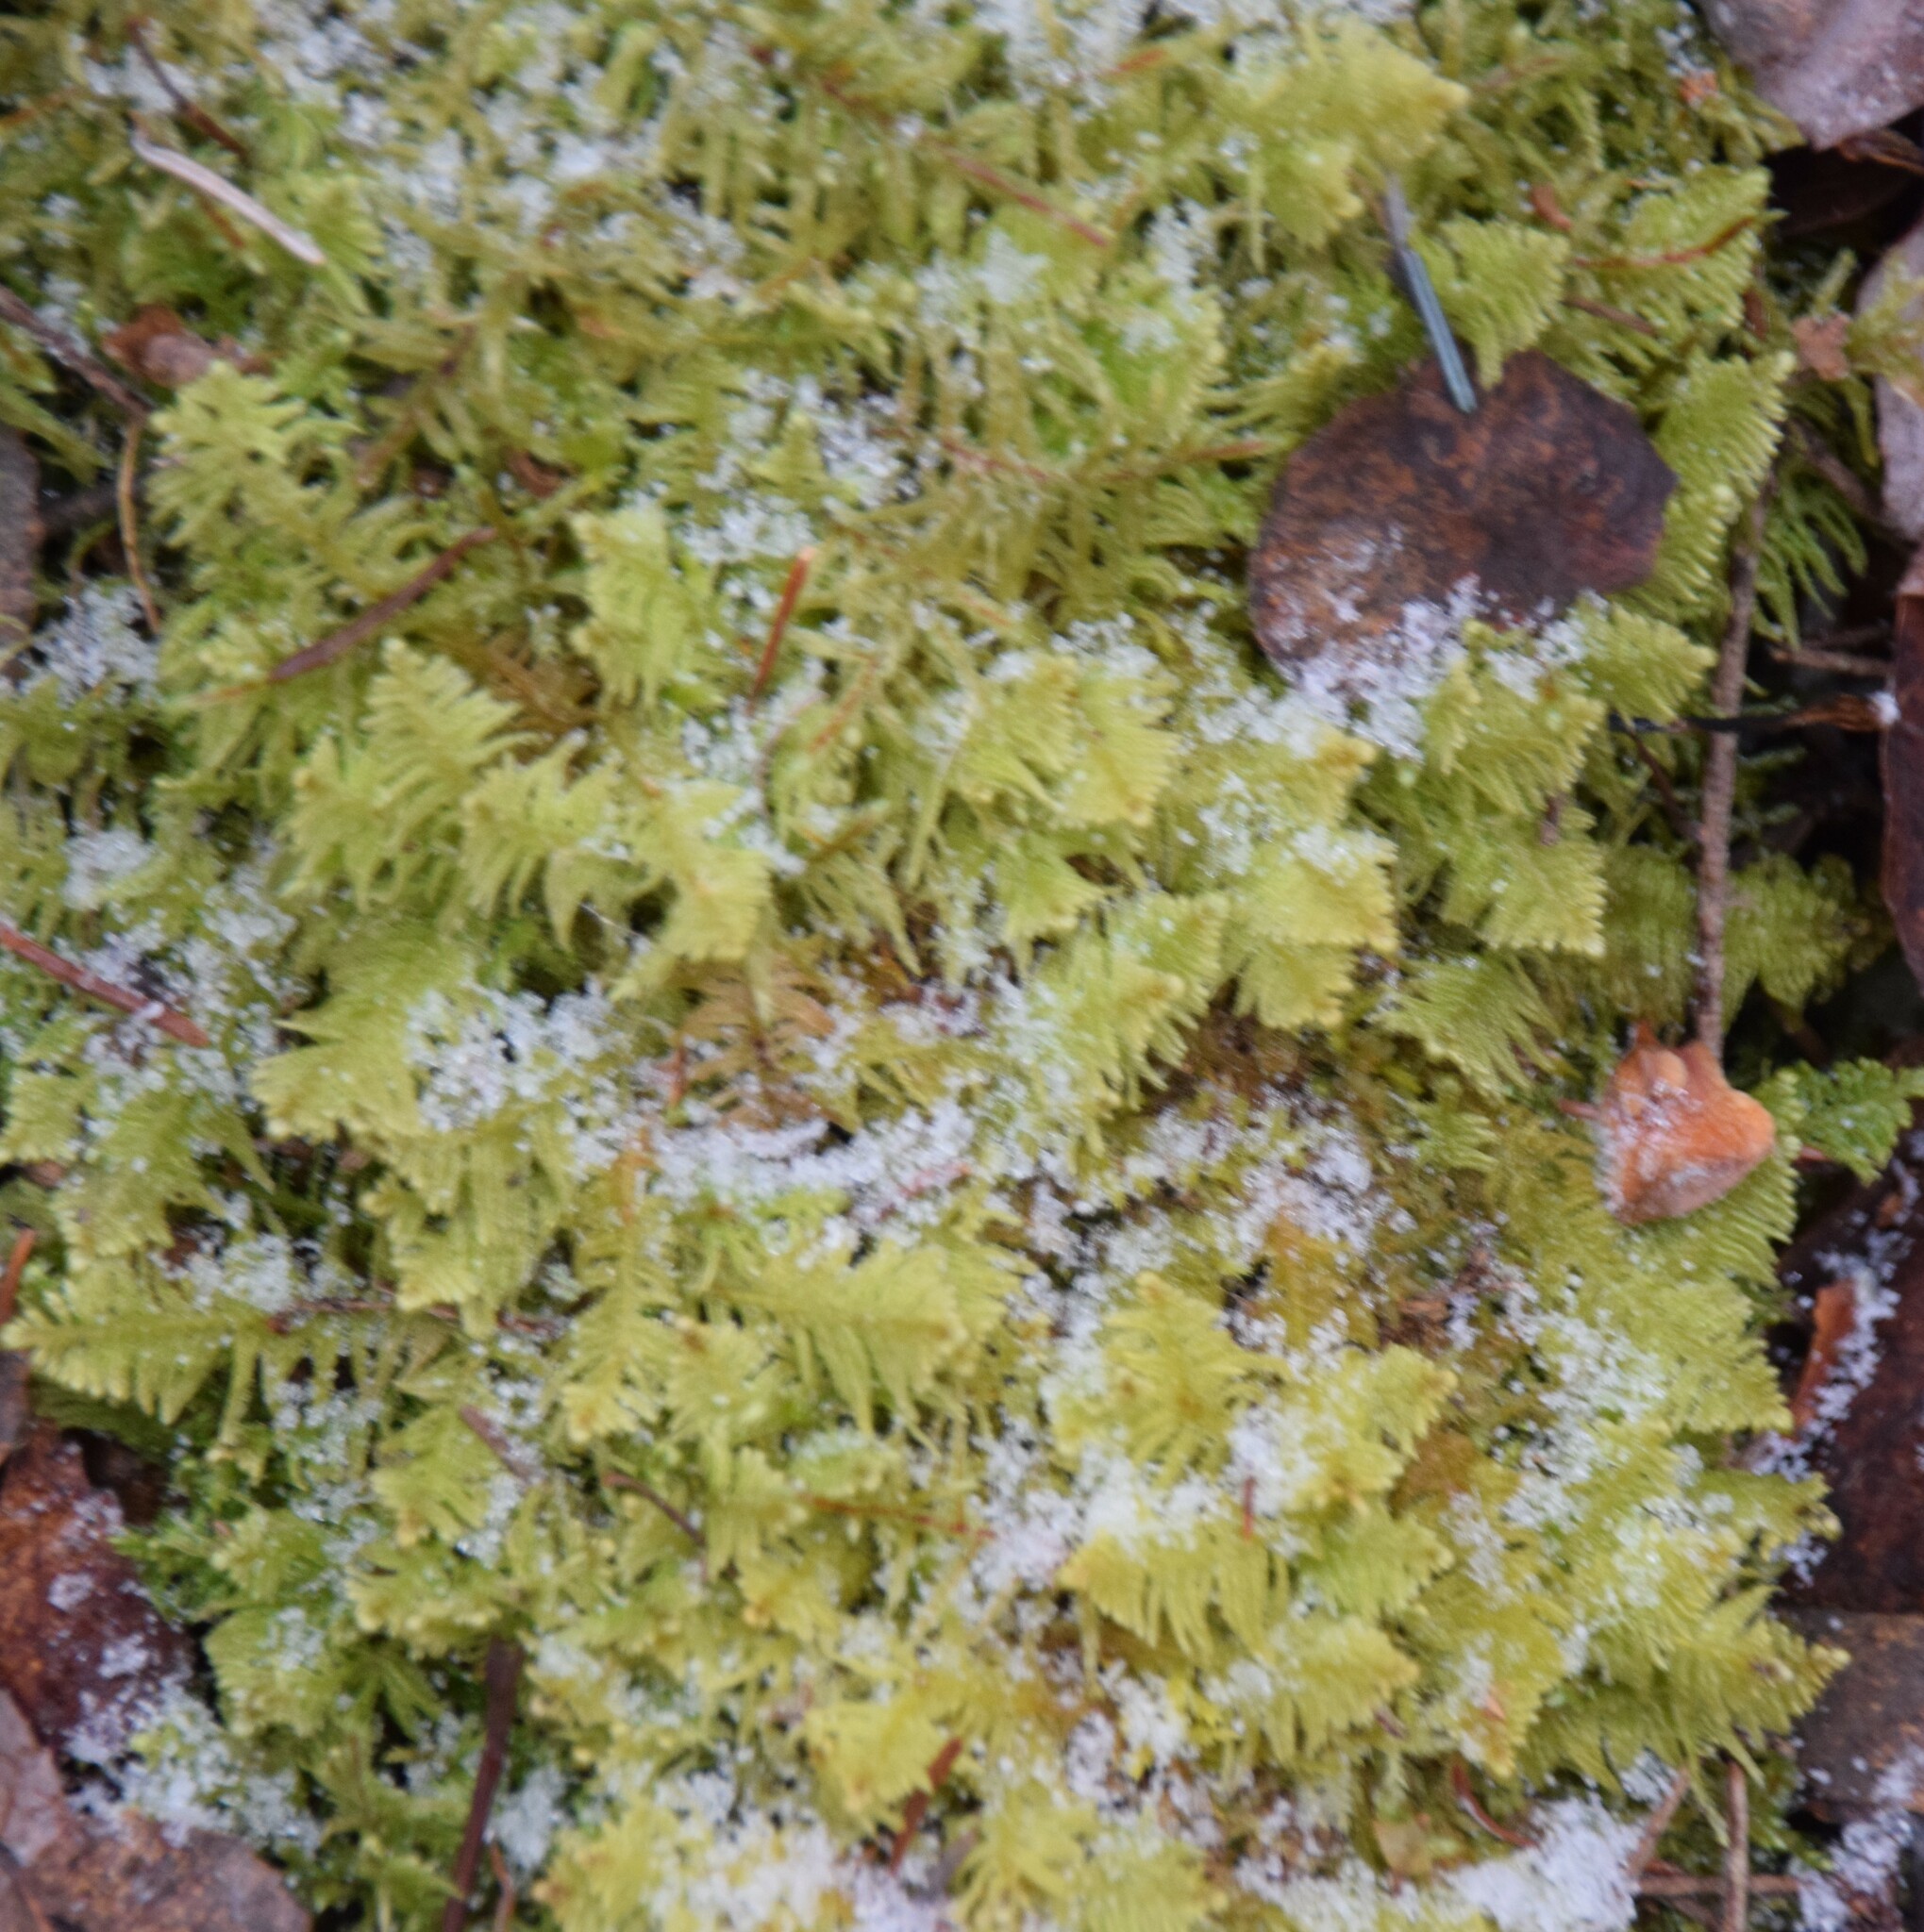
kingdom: Plantae
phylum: Bryophyta
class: Bryopsida
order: Hypnales
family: Pylaisiaceae
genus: Ptilium
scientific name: Ptilium crista-castrensis
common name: Knight's plume moss
